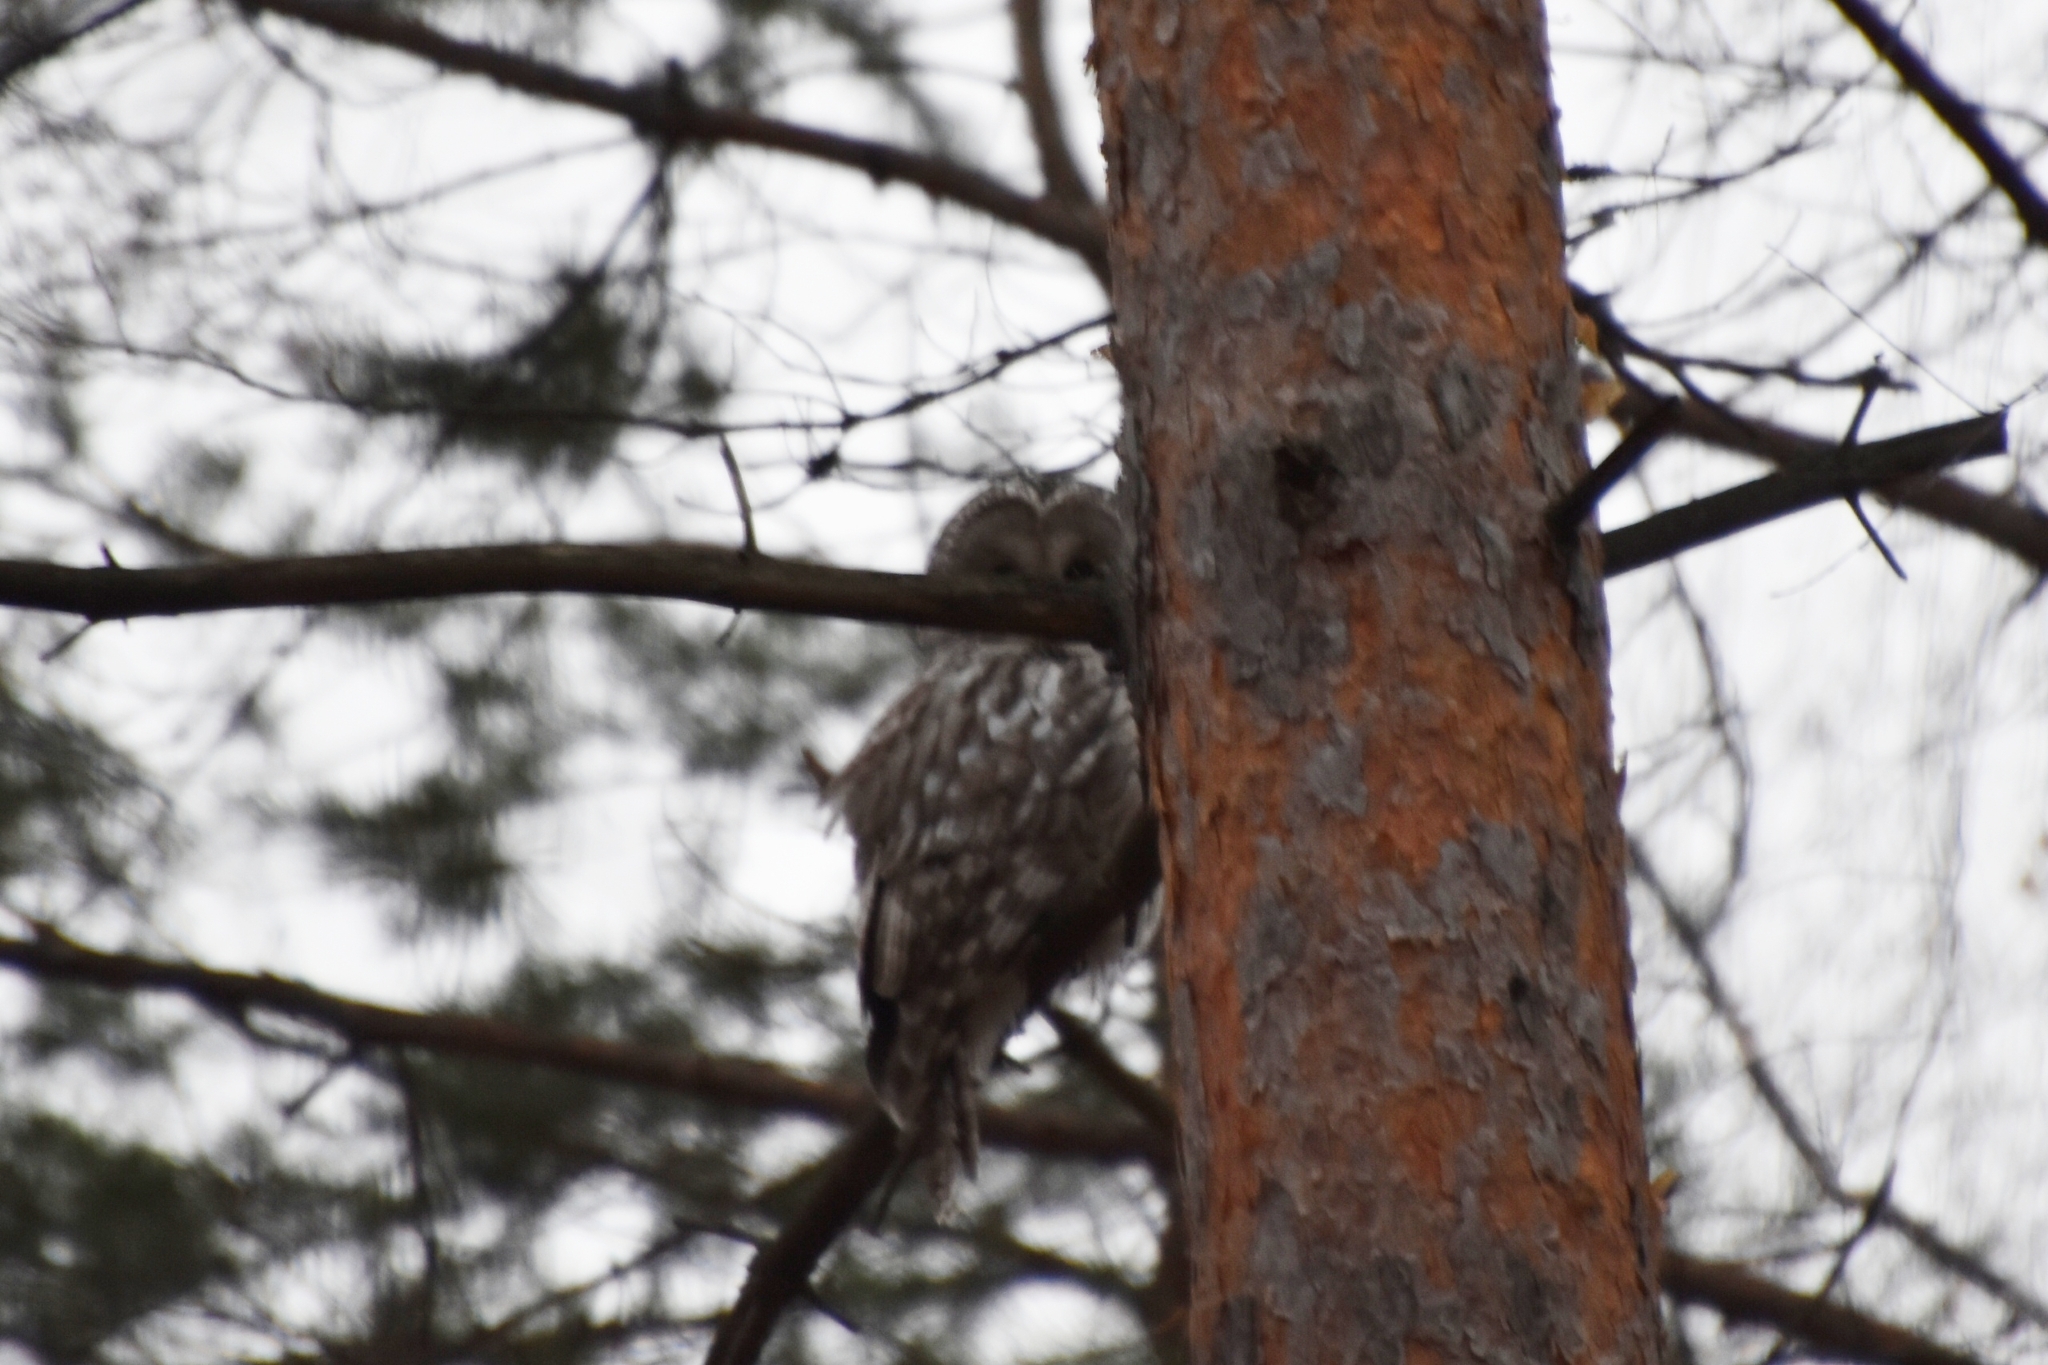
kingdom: Animalia
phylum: Chordata
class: Aves
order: Strigiformes
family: Strigidae
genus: Strix
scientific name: Strix uralensis
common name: Ural owl
